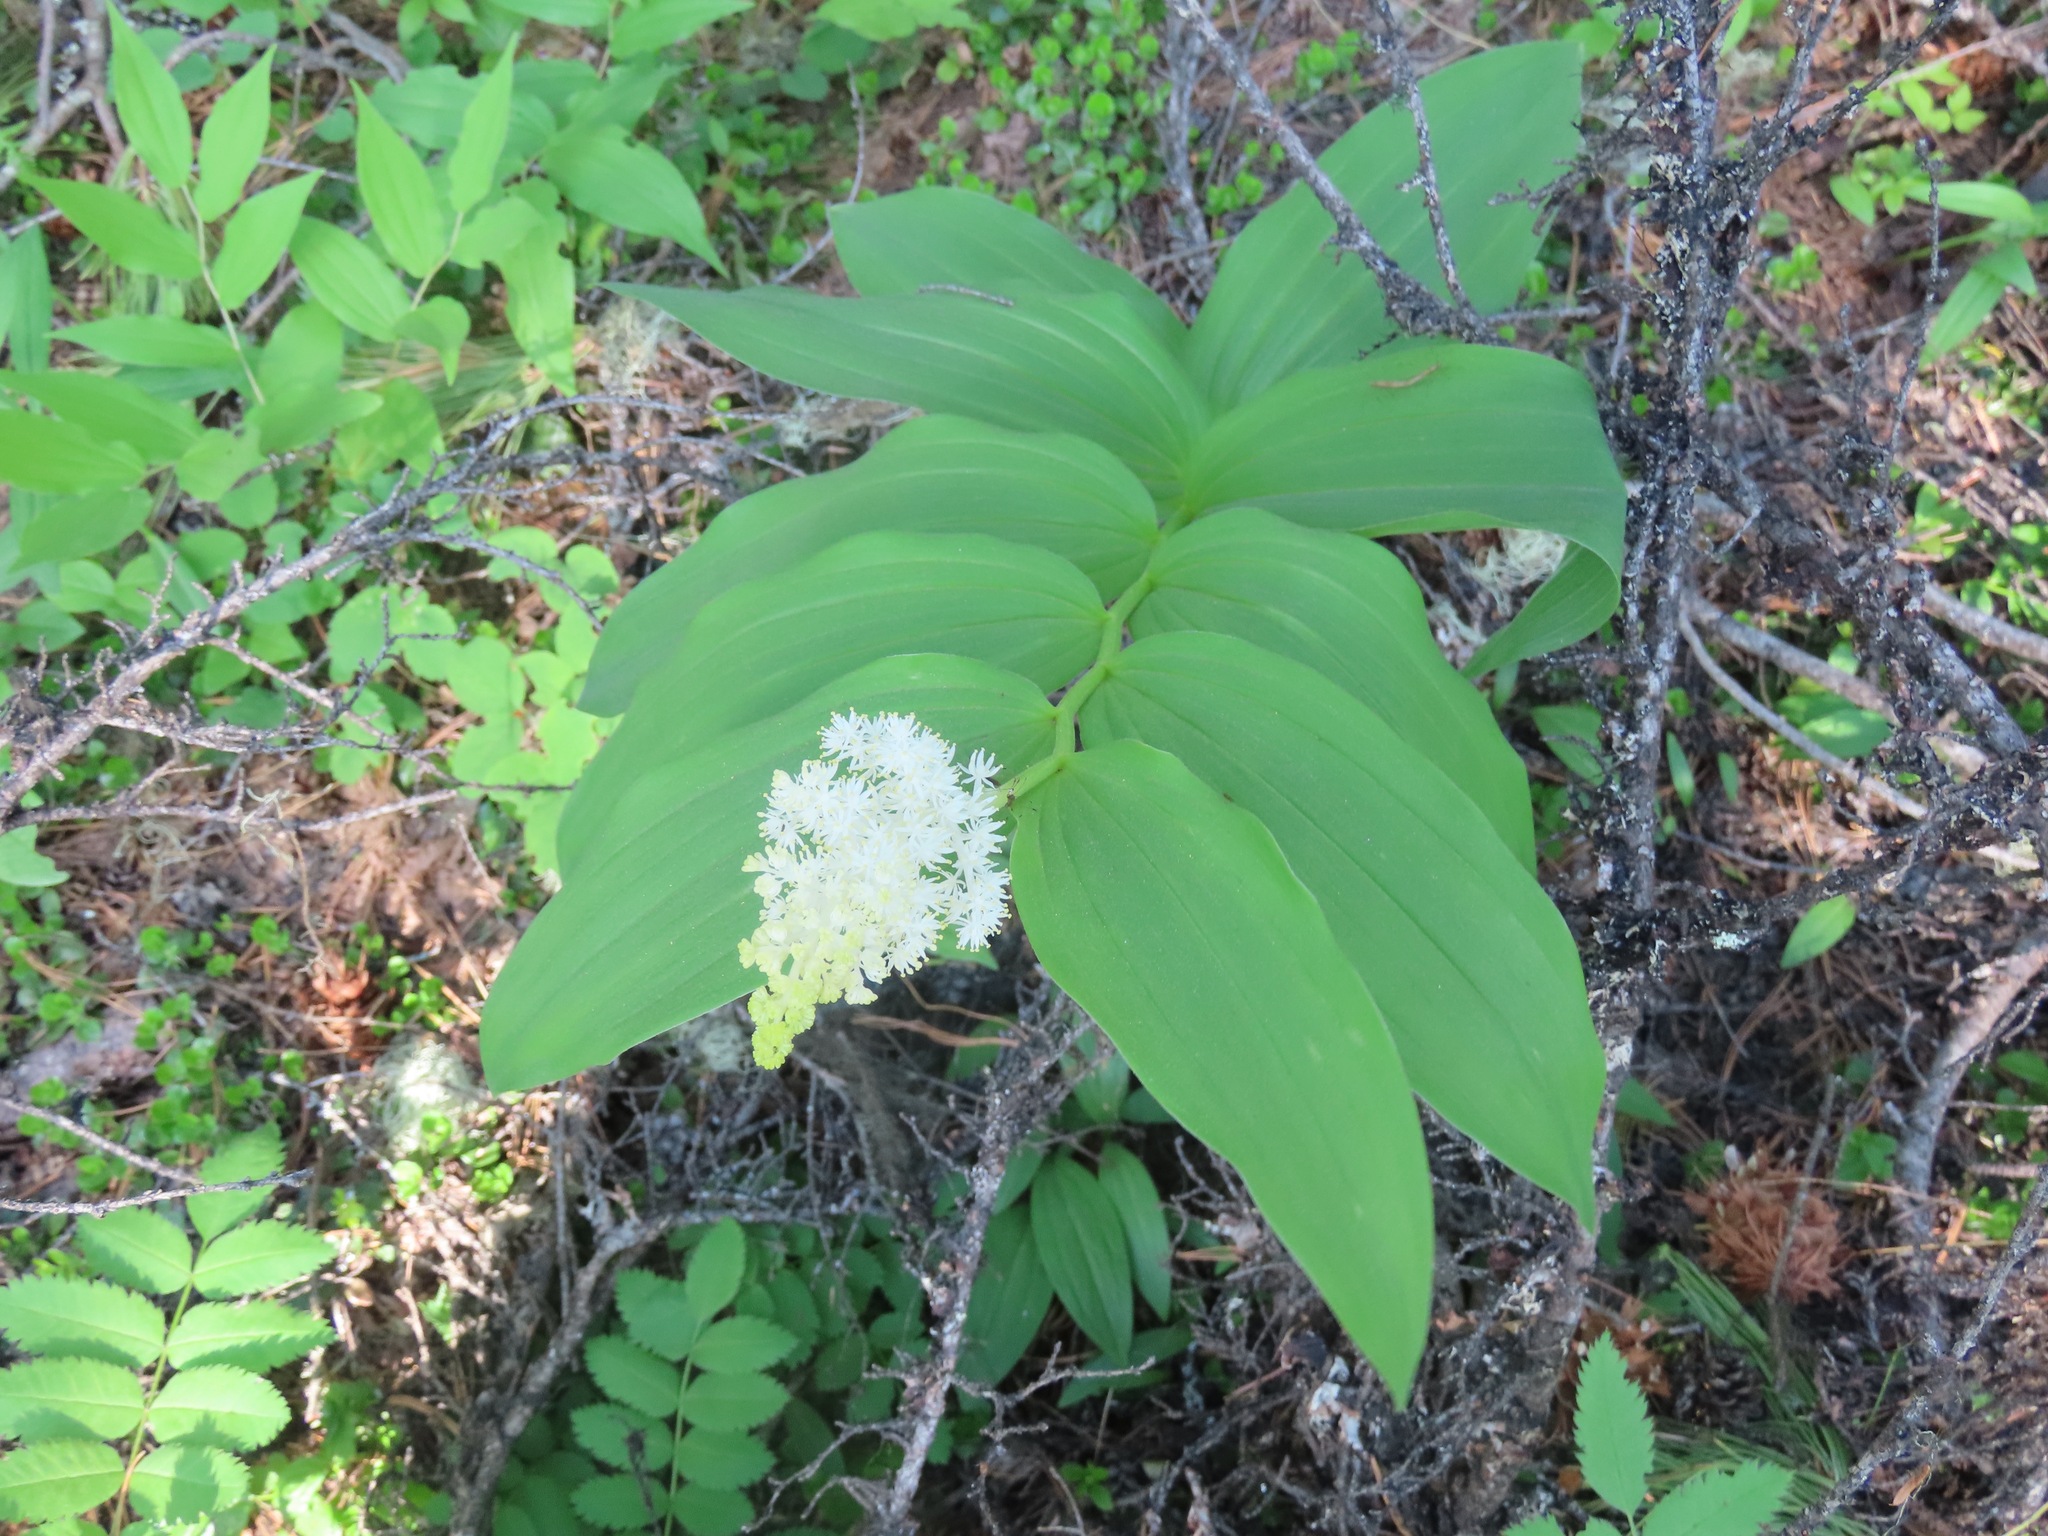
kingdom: Plantae
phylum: Tracheophyta
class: Liliopsida
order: Asparagales
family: Asparagaceae
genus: Maianthemum
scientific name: Maianthemum racemosum
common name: False spikenard
